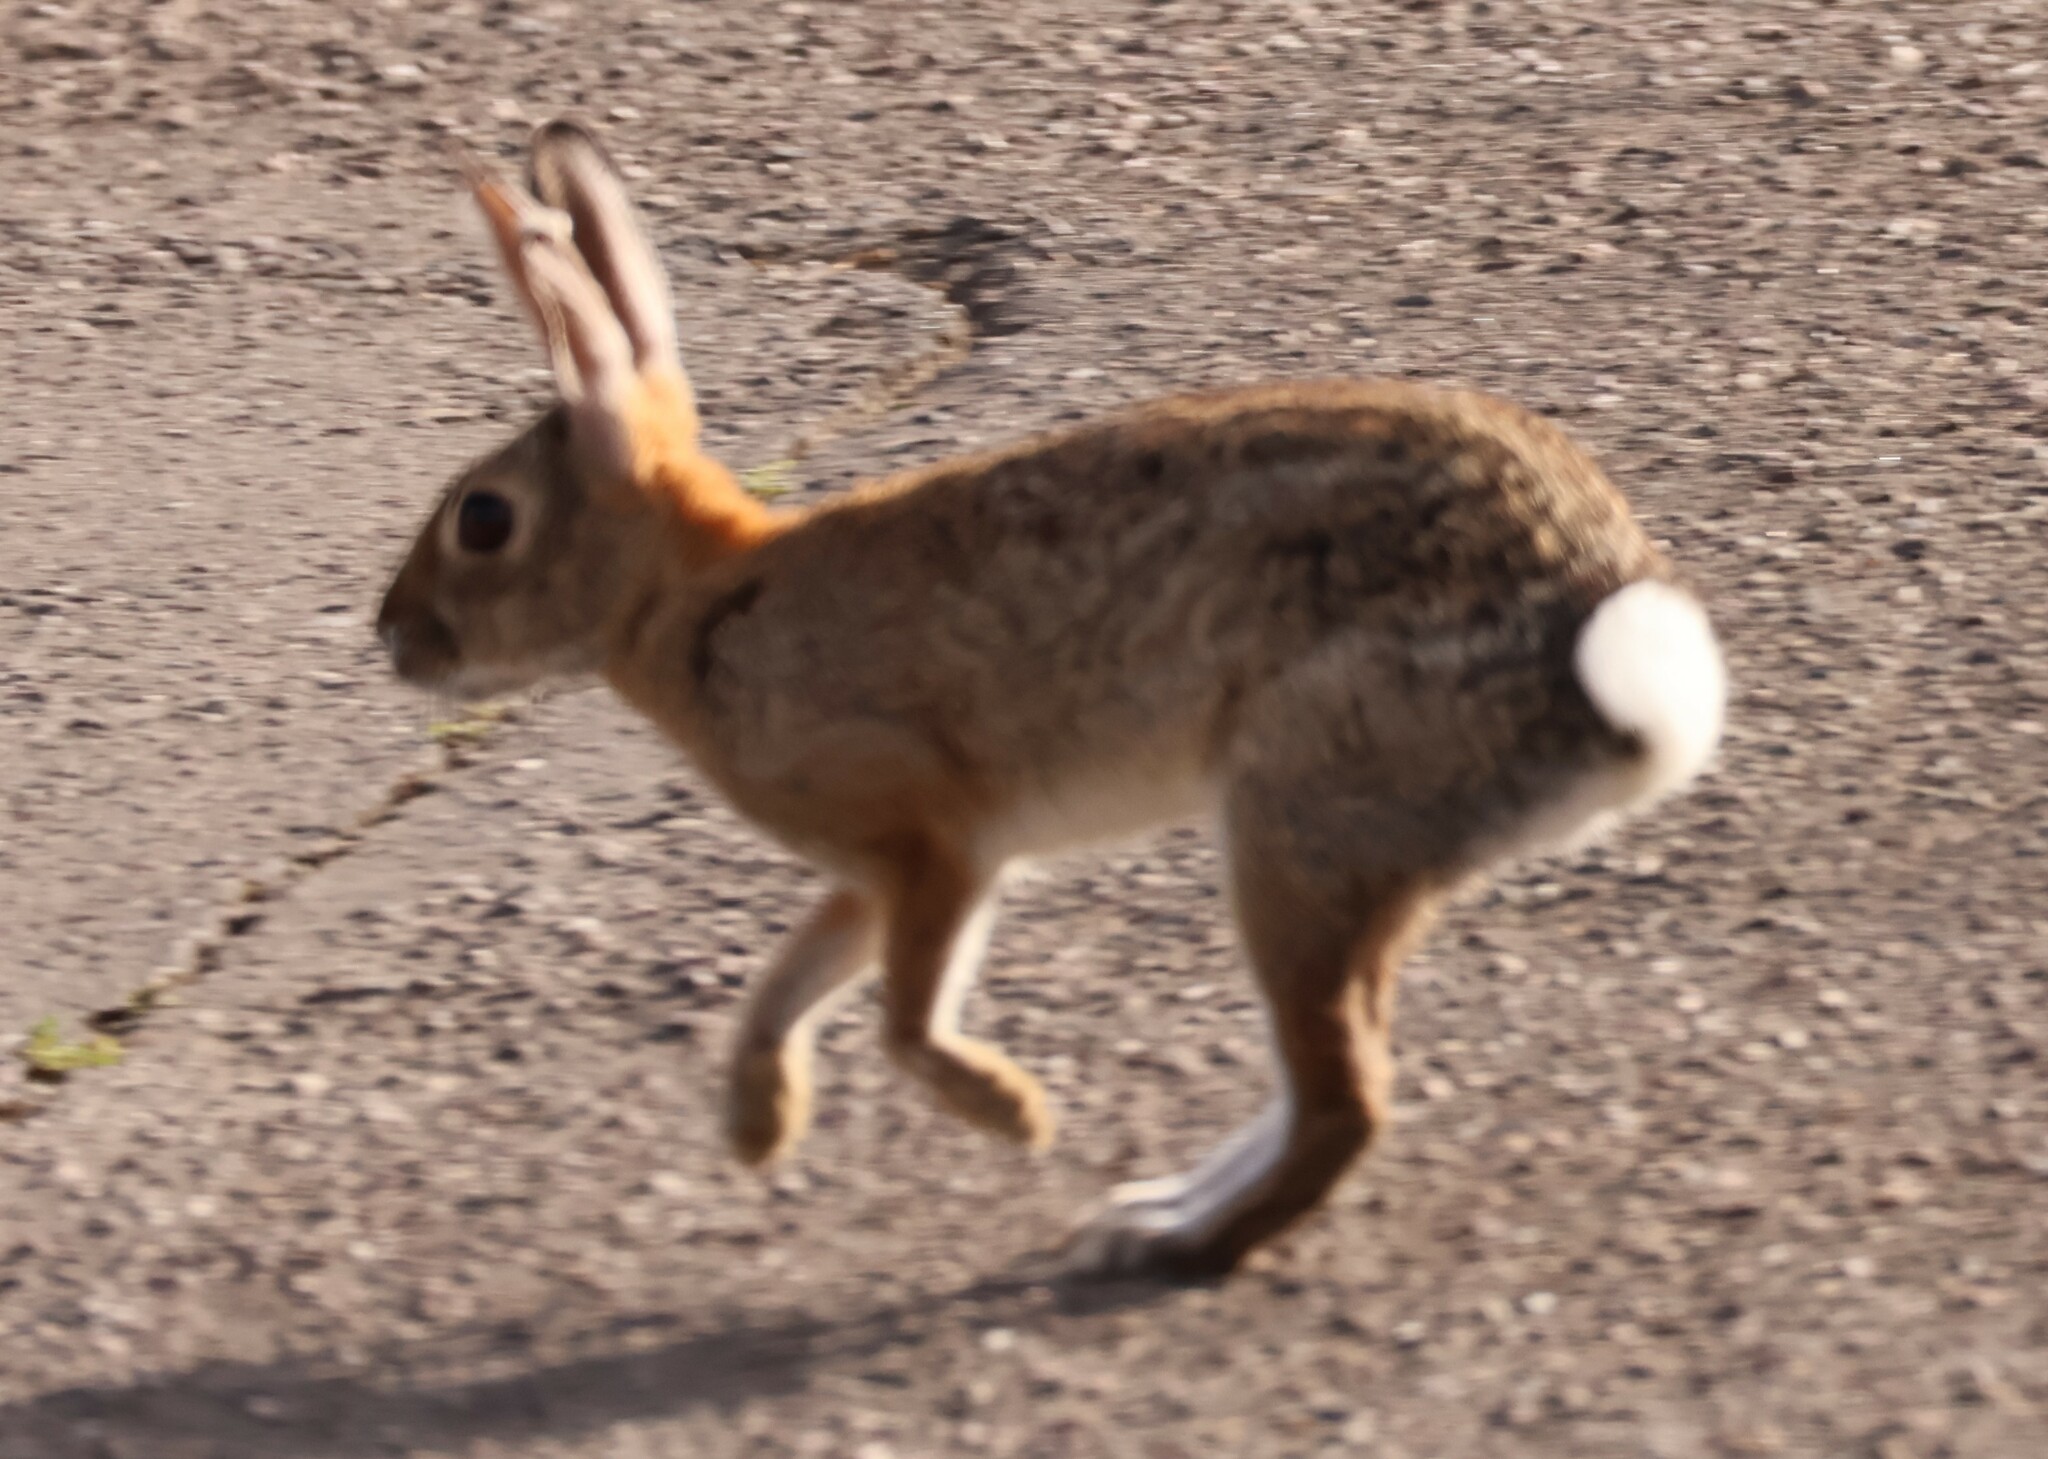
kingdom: Animalia
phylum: Chordata
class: Mammalia
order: Lagomorpha
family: Leporidae
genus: Sylvilagus
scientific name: Sylvilagus audubonii
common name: Desert cottontail
